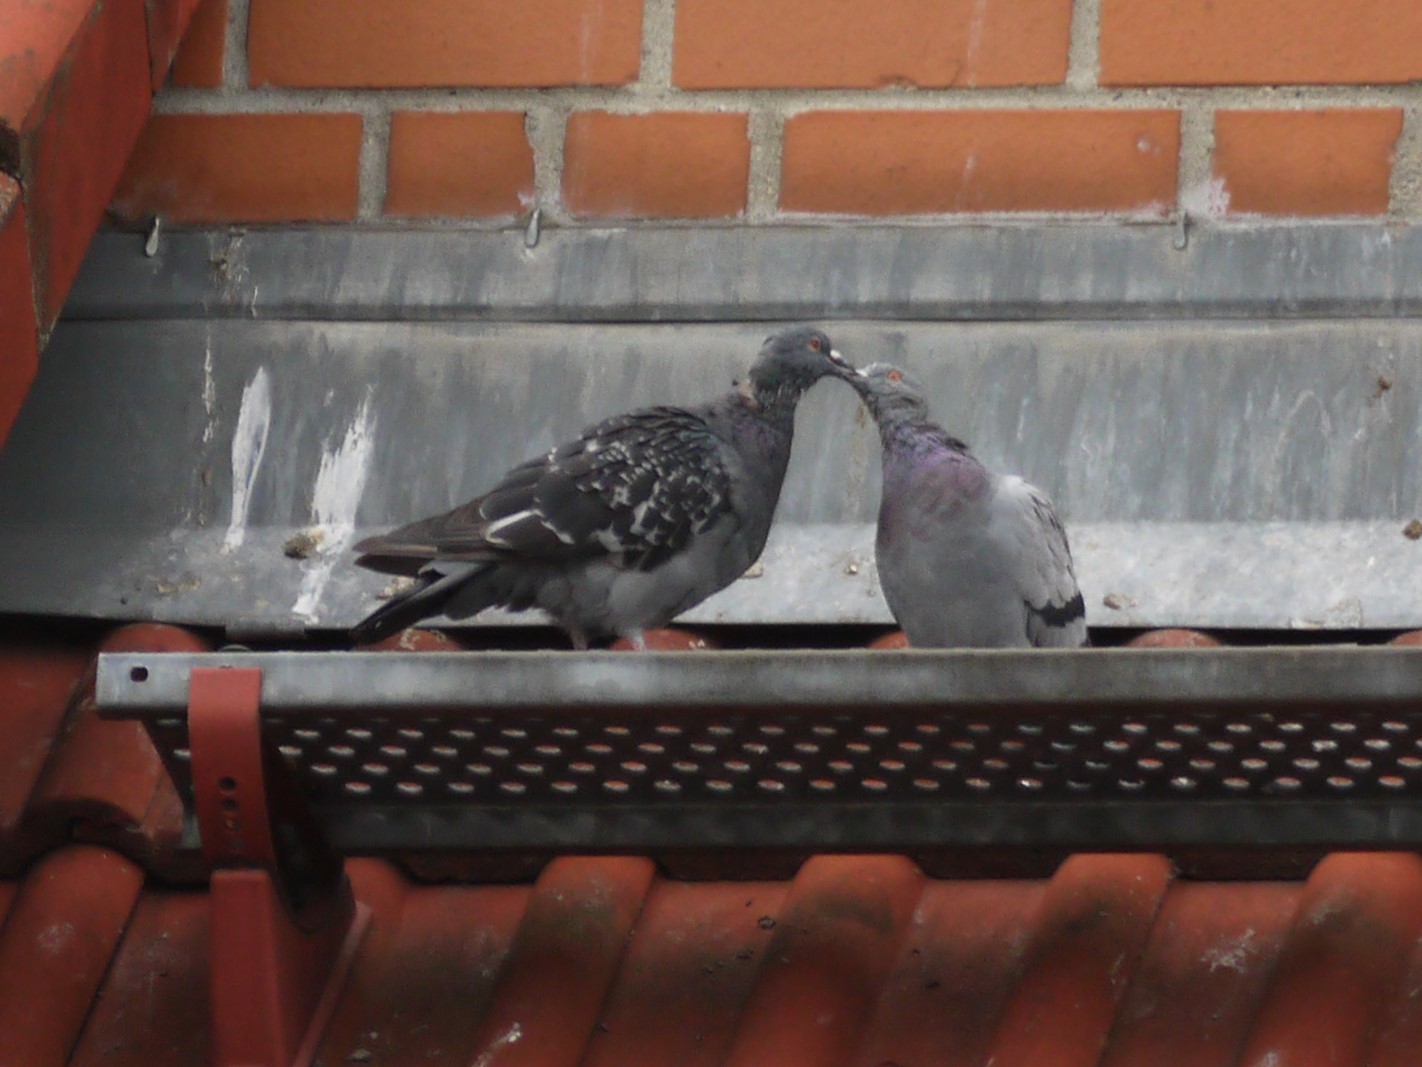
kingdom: Animalia
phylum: Chordata
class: Aves
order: Columbiformes
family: Columbidae
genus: Columba
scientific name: Columba livia
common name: Rock pigeon
